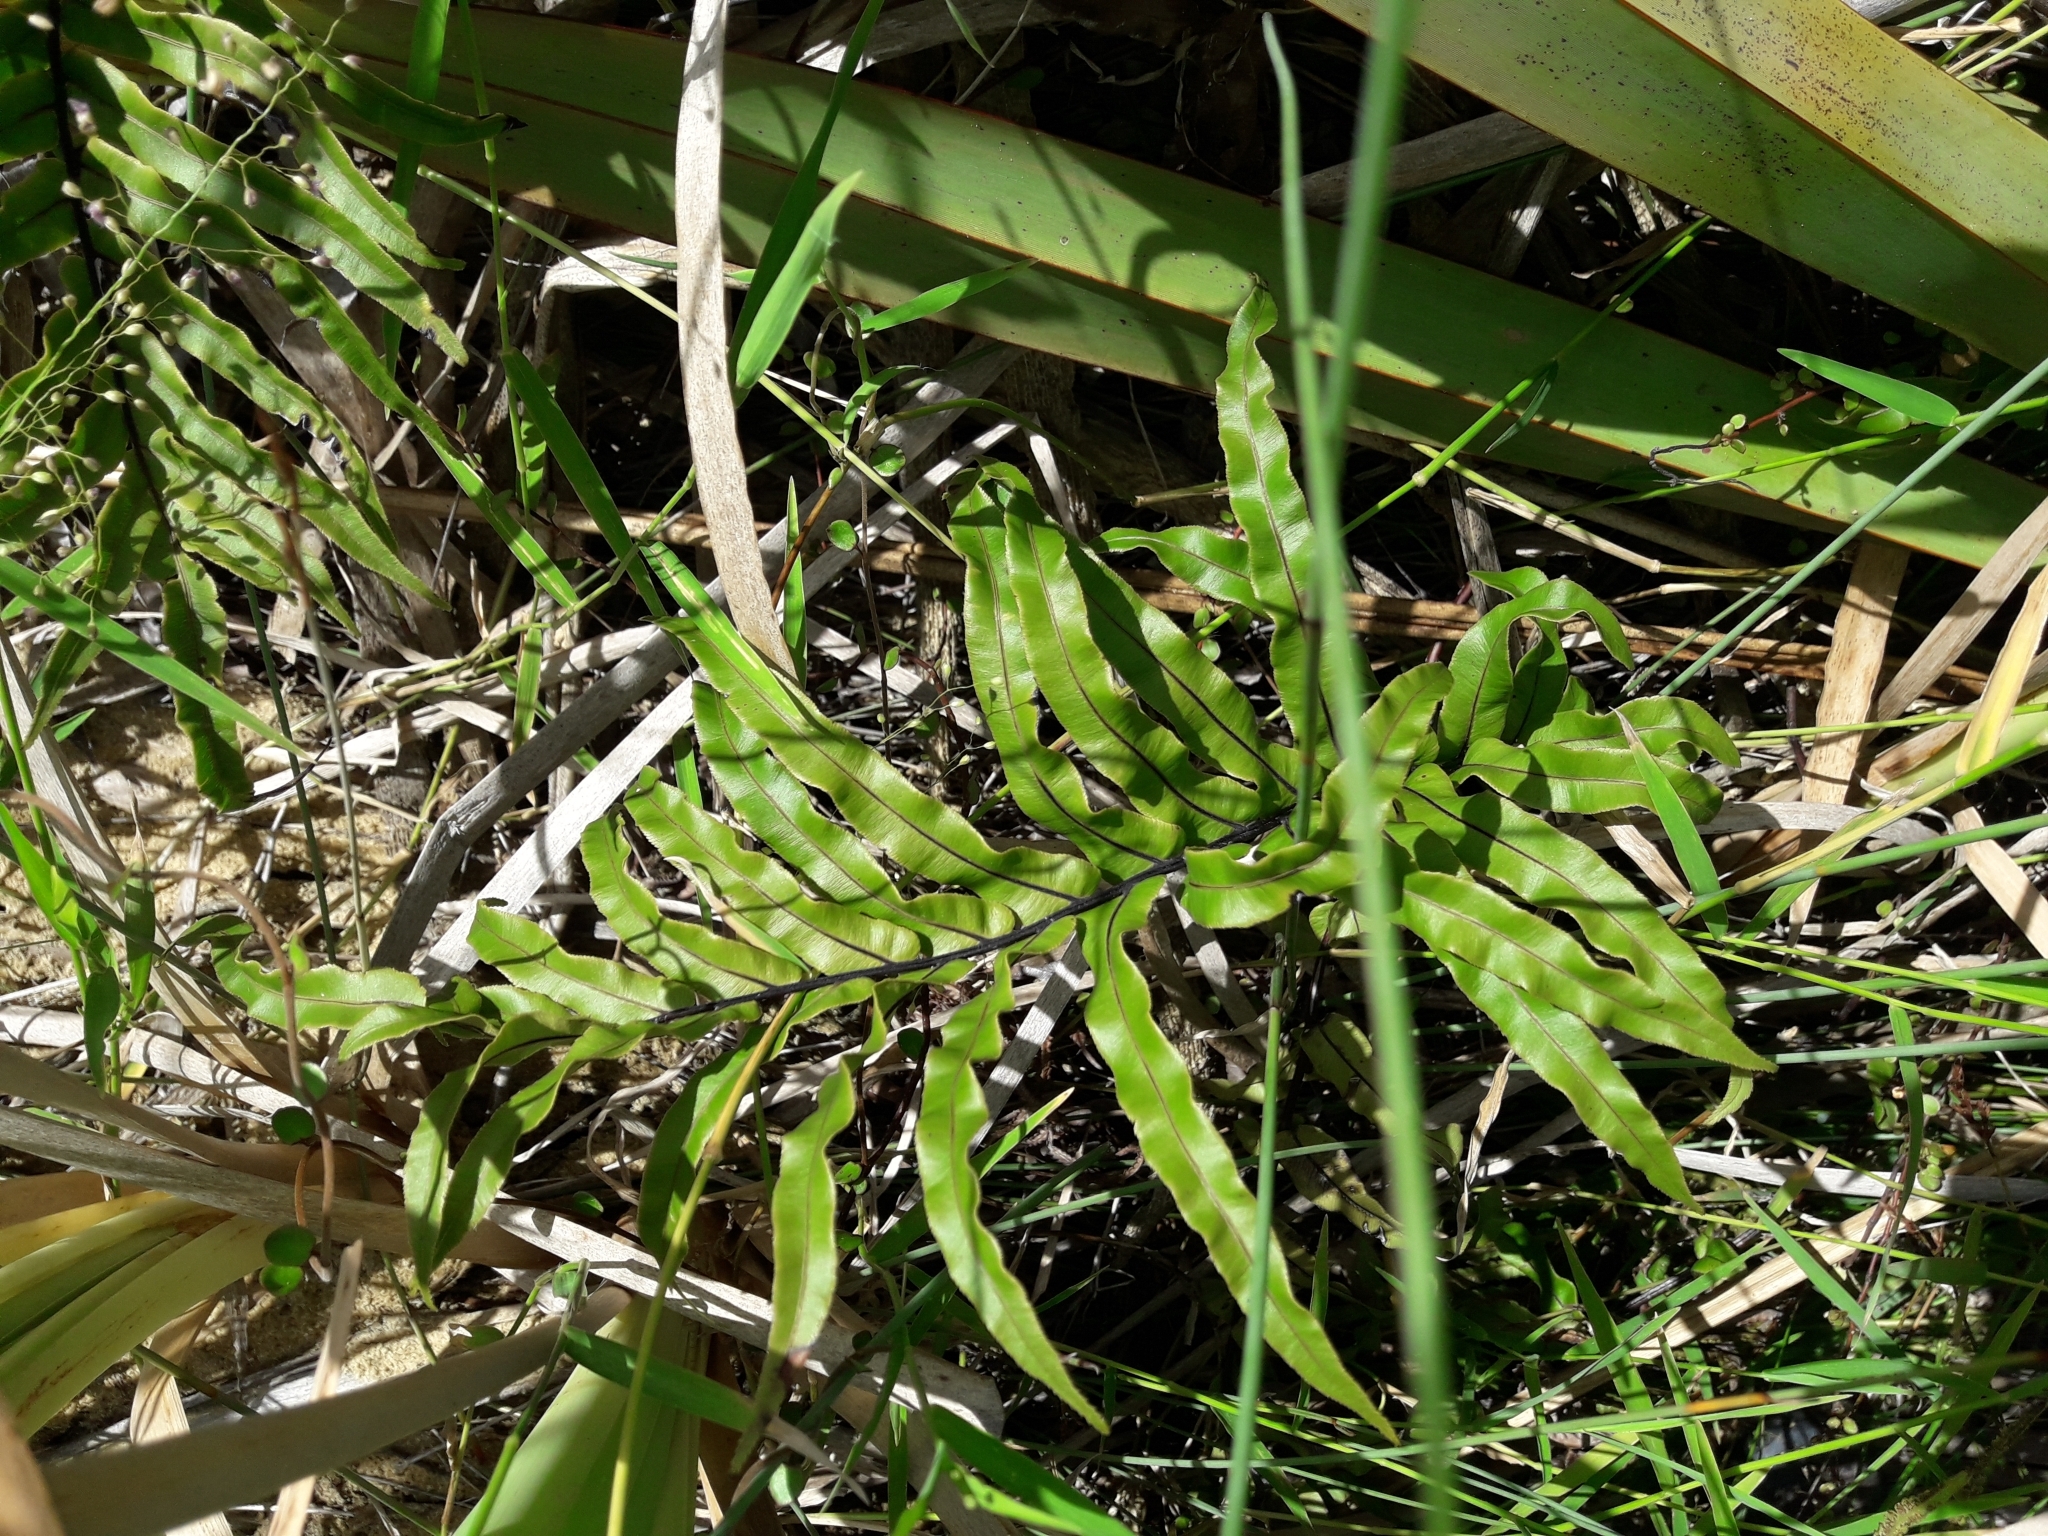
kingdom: Plantae
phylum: Tracheophyta
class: Polypodiopsida
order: Polypodiales
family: Blechnaceae
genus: Parablechnum
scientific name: Parablechnum minus
